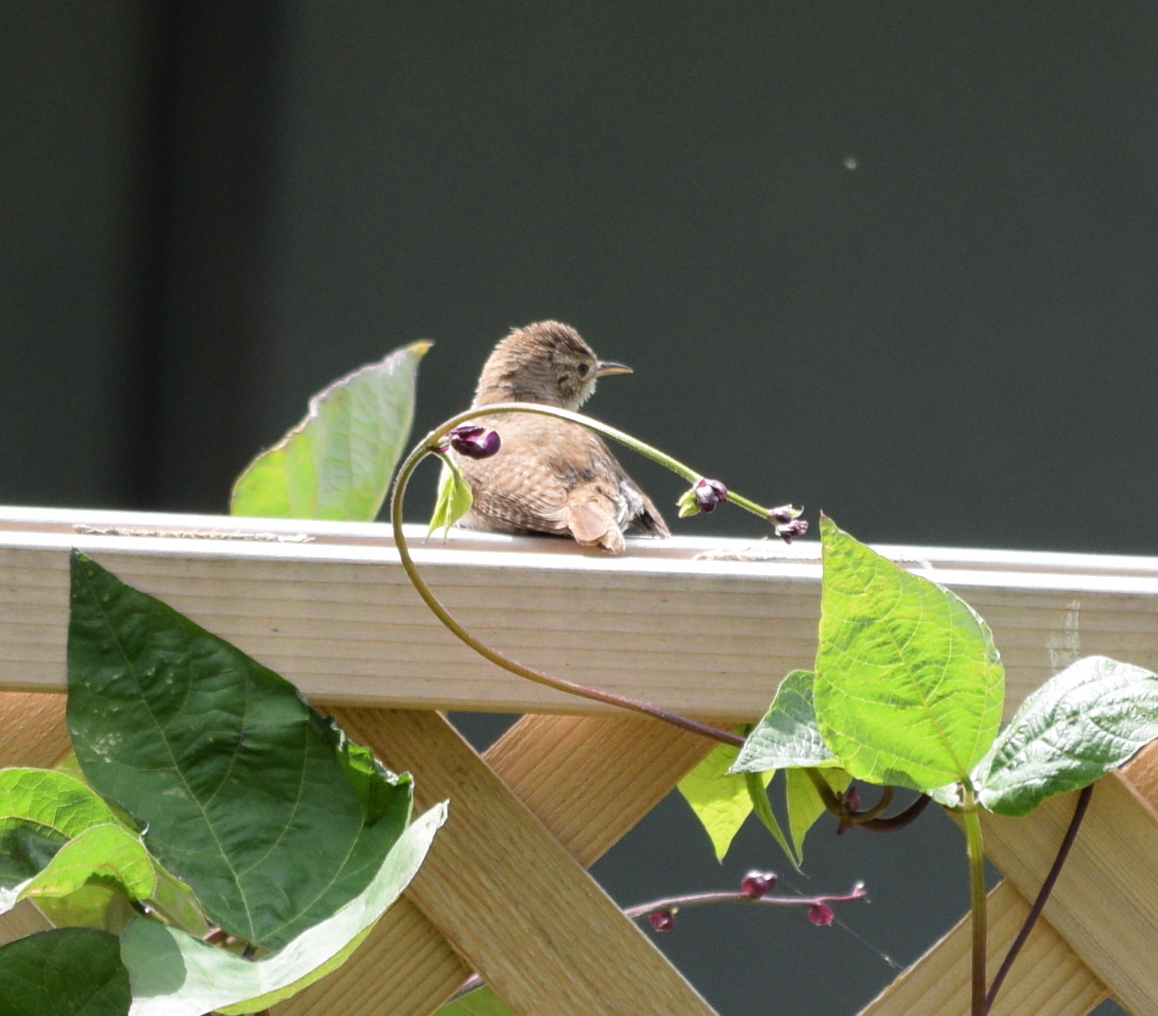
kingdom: Animalia
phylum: Chordata
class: Aves
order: Passeriformes
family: Troglodytidae
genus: Troglodytes
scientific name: Troglodytes aedon
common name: House wren
